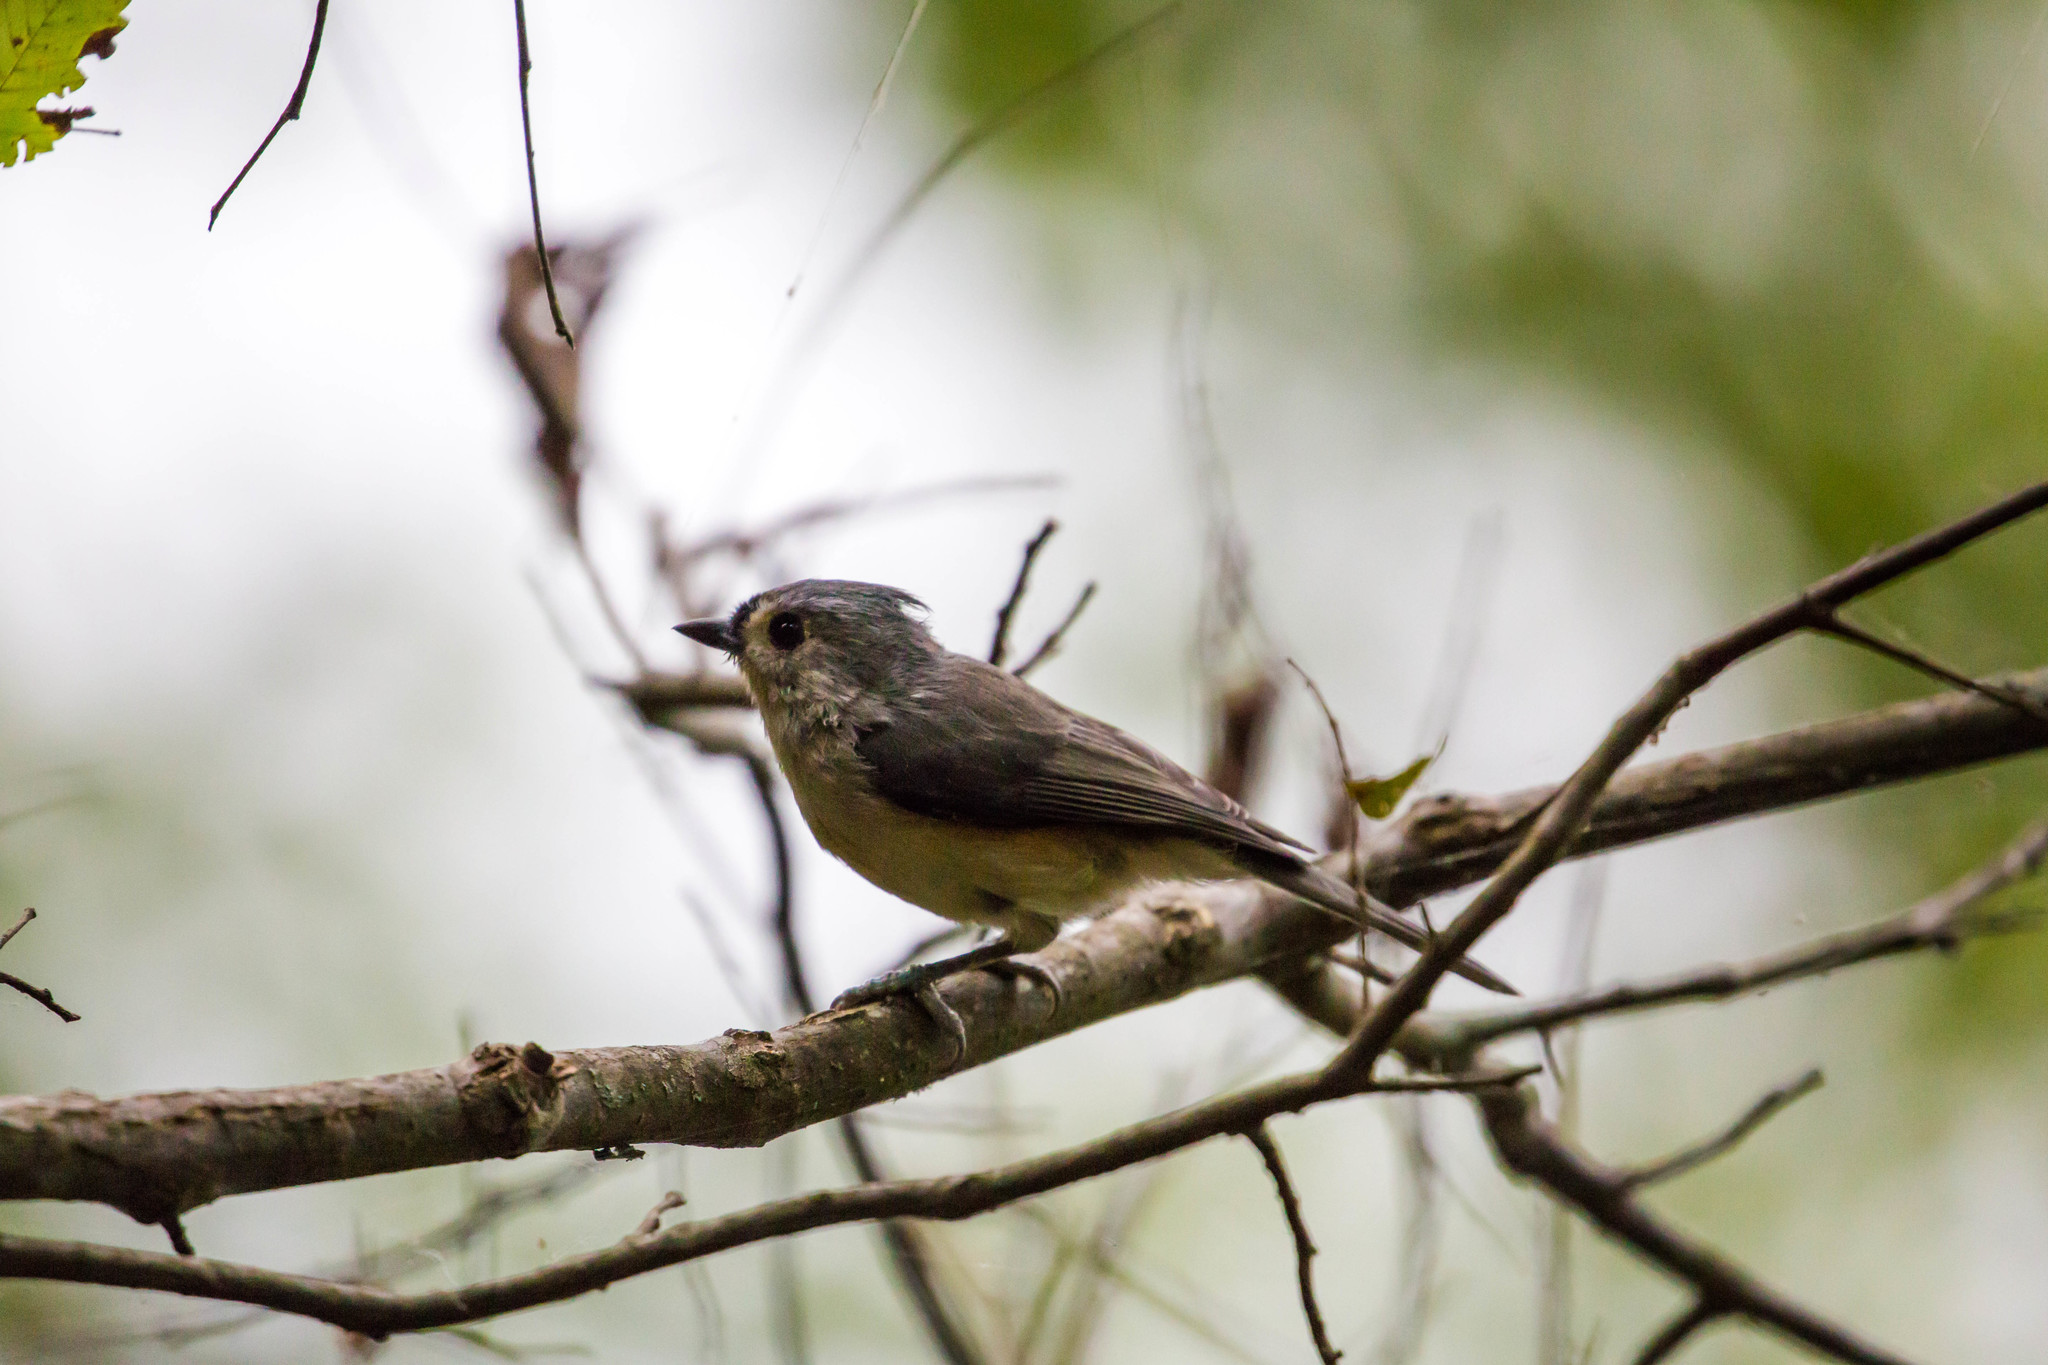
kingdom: Animalia
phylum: Chordata
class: Aves
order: Passeriformes
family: Paridae
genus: Baeolophus
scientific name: Baeolophus bicolor
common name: Tufted titmouse
